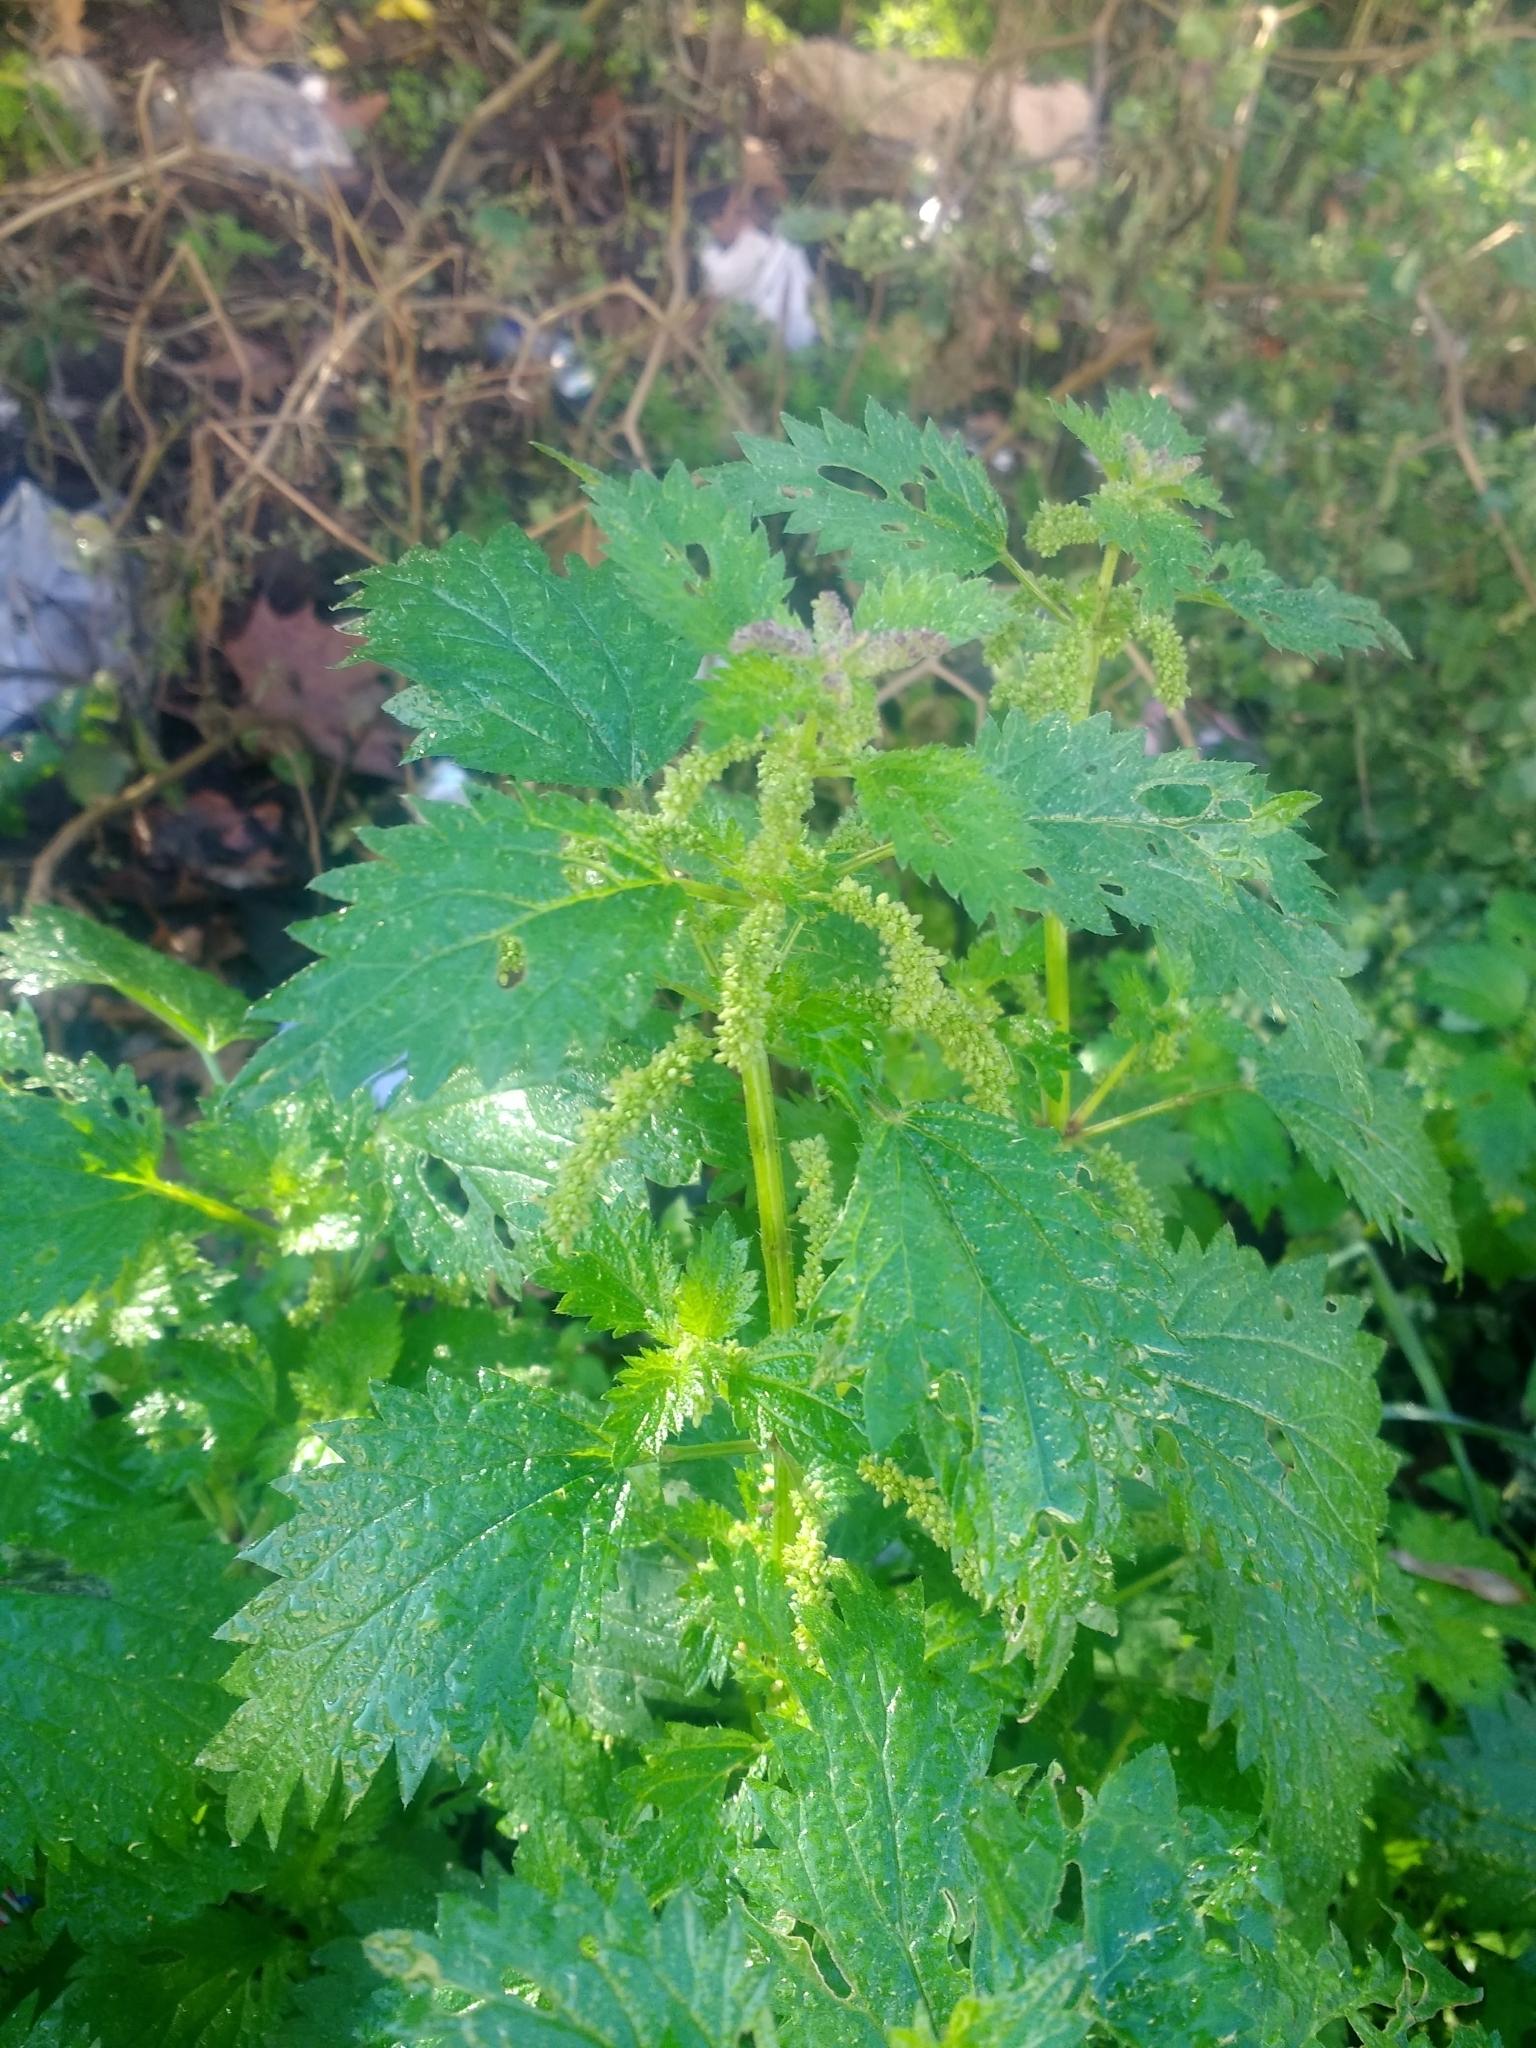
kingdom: Plantae
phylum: Tracheophyta
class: Magnoliopsida
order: Rosales
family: Urticaceae
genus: Urtica
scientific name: Urtica membranacea
